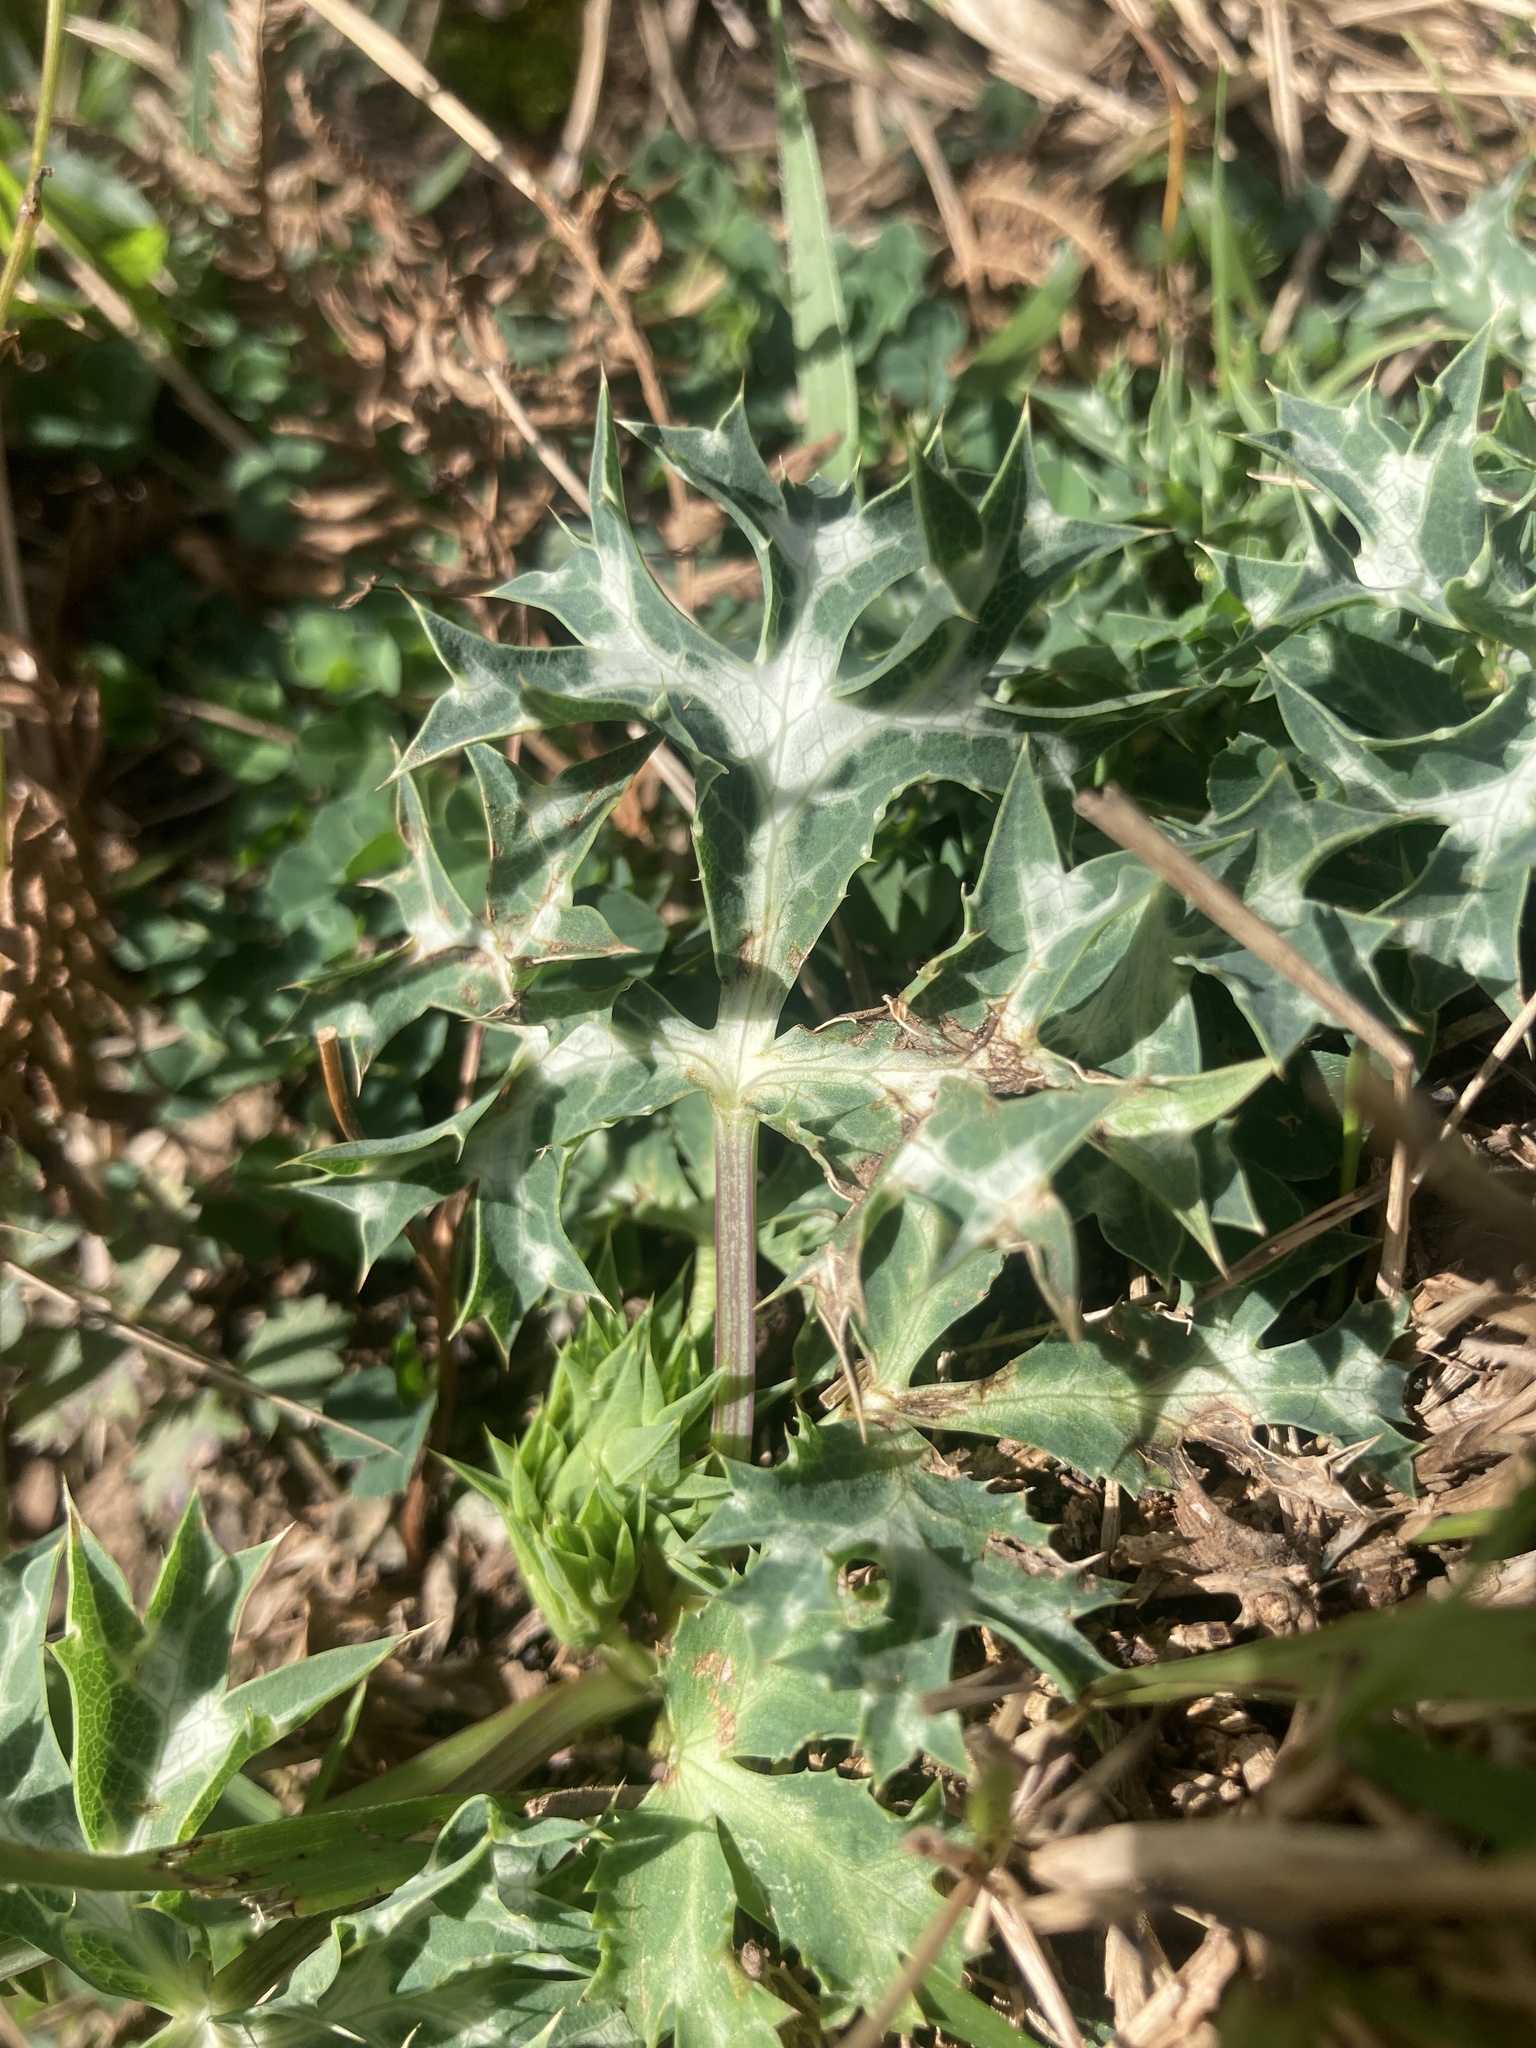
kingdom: Plantae
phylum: Tracheophyta
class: Magnoliopsida
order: Apiales
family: Apiaceae
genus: Eryngium
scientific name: Eryngium bourgatii
